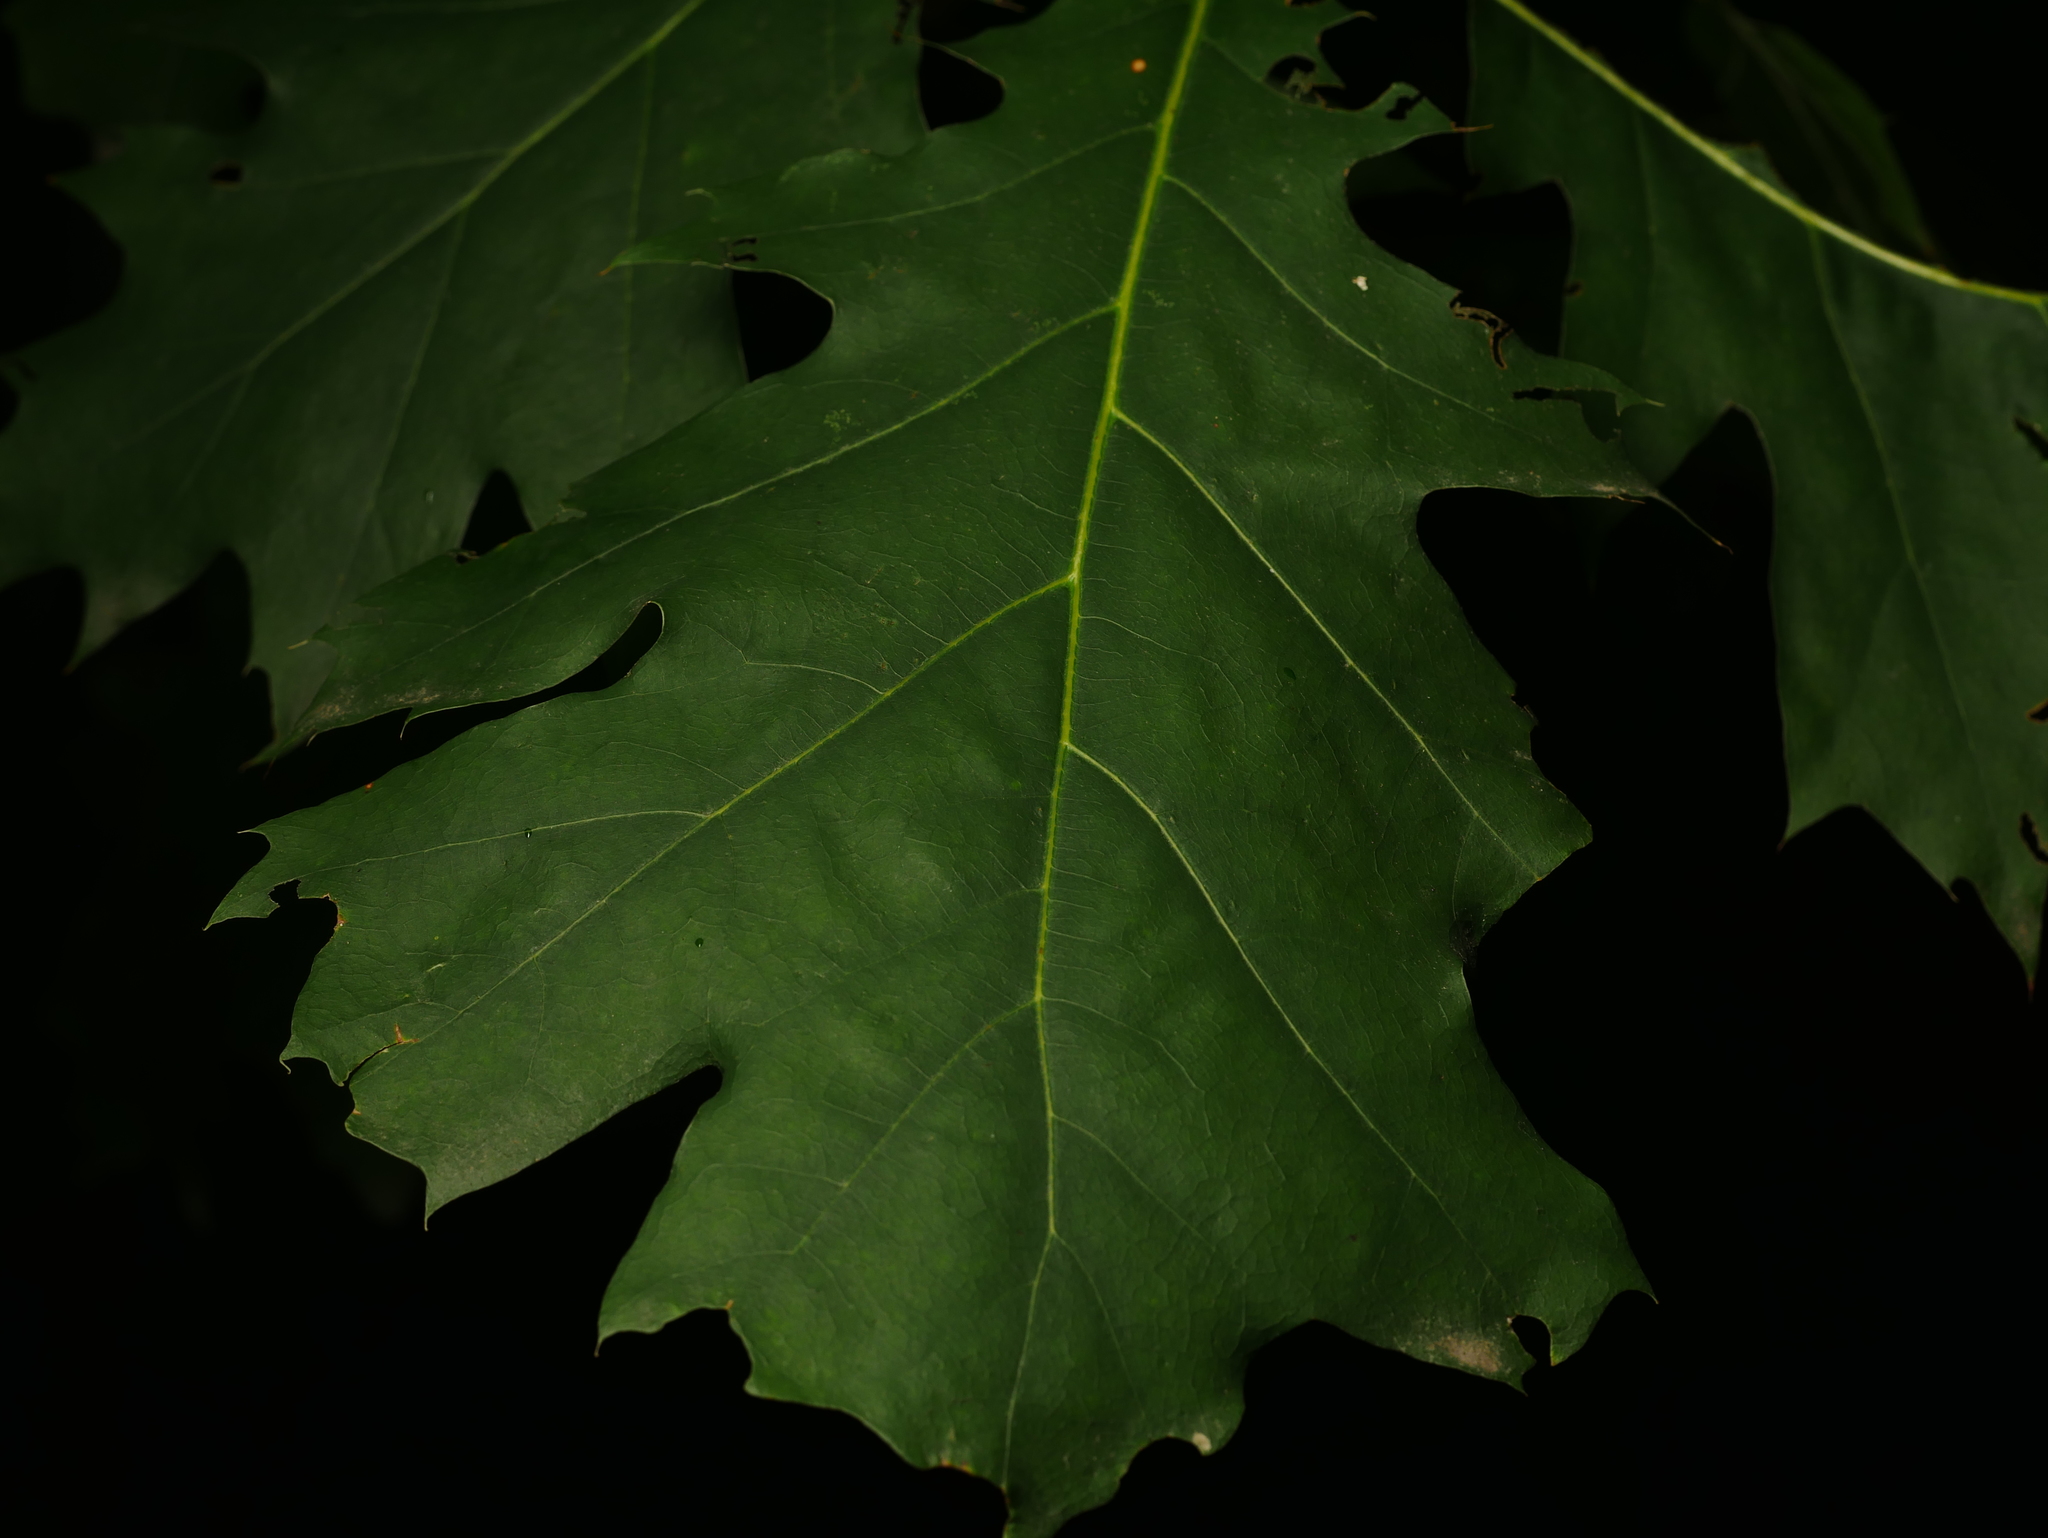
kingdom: Plantae
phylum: Tracheophyta
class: Magnoliopsida
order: Fagales
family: Fagaceae
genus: Quercus
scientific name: Quercus rubra
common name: Red oak
